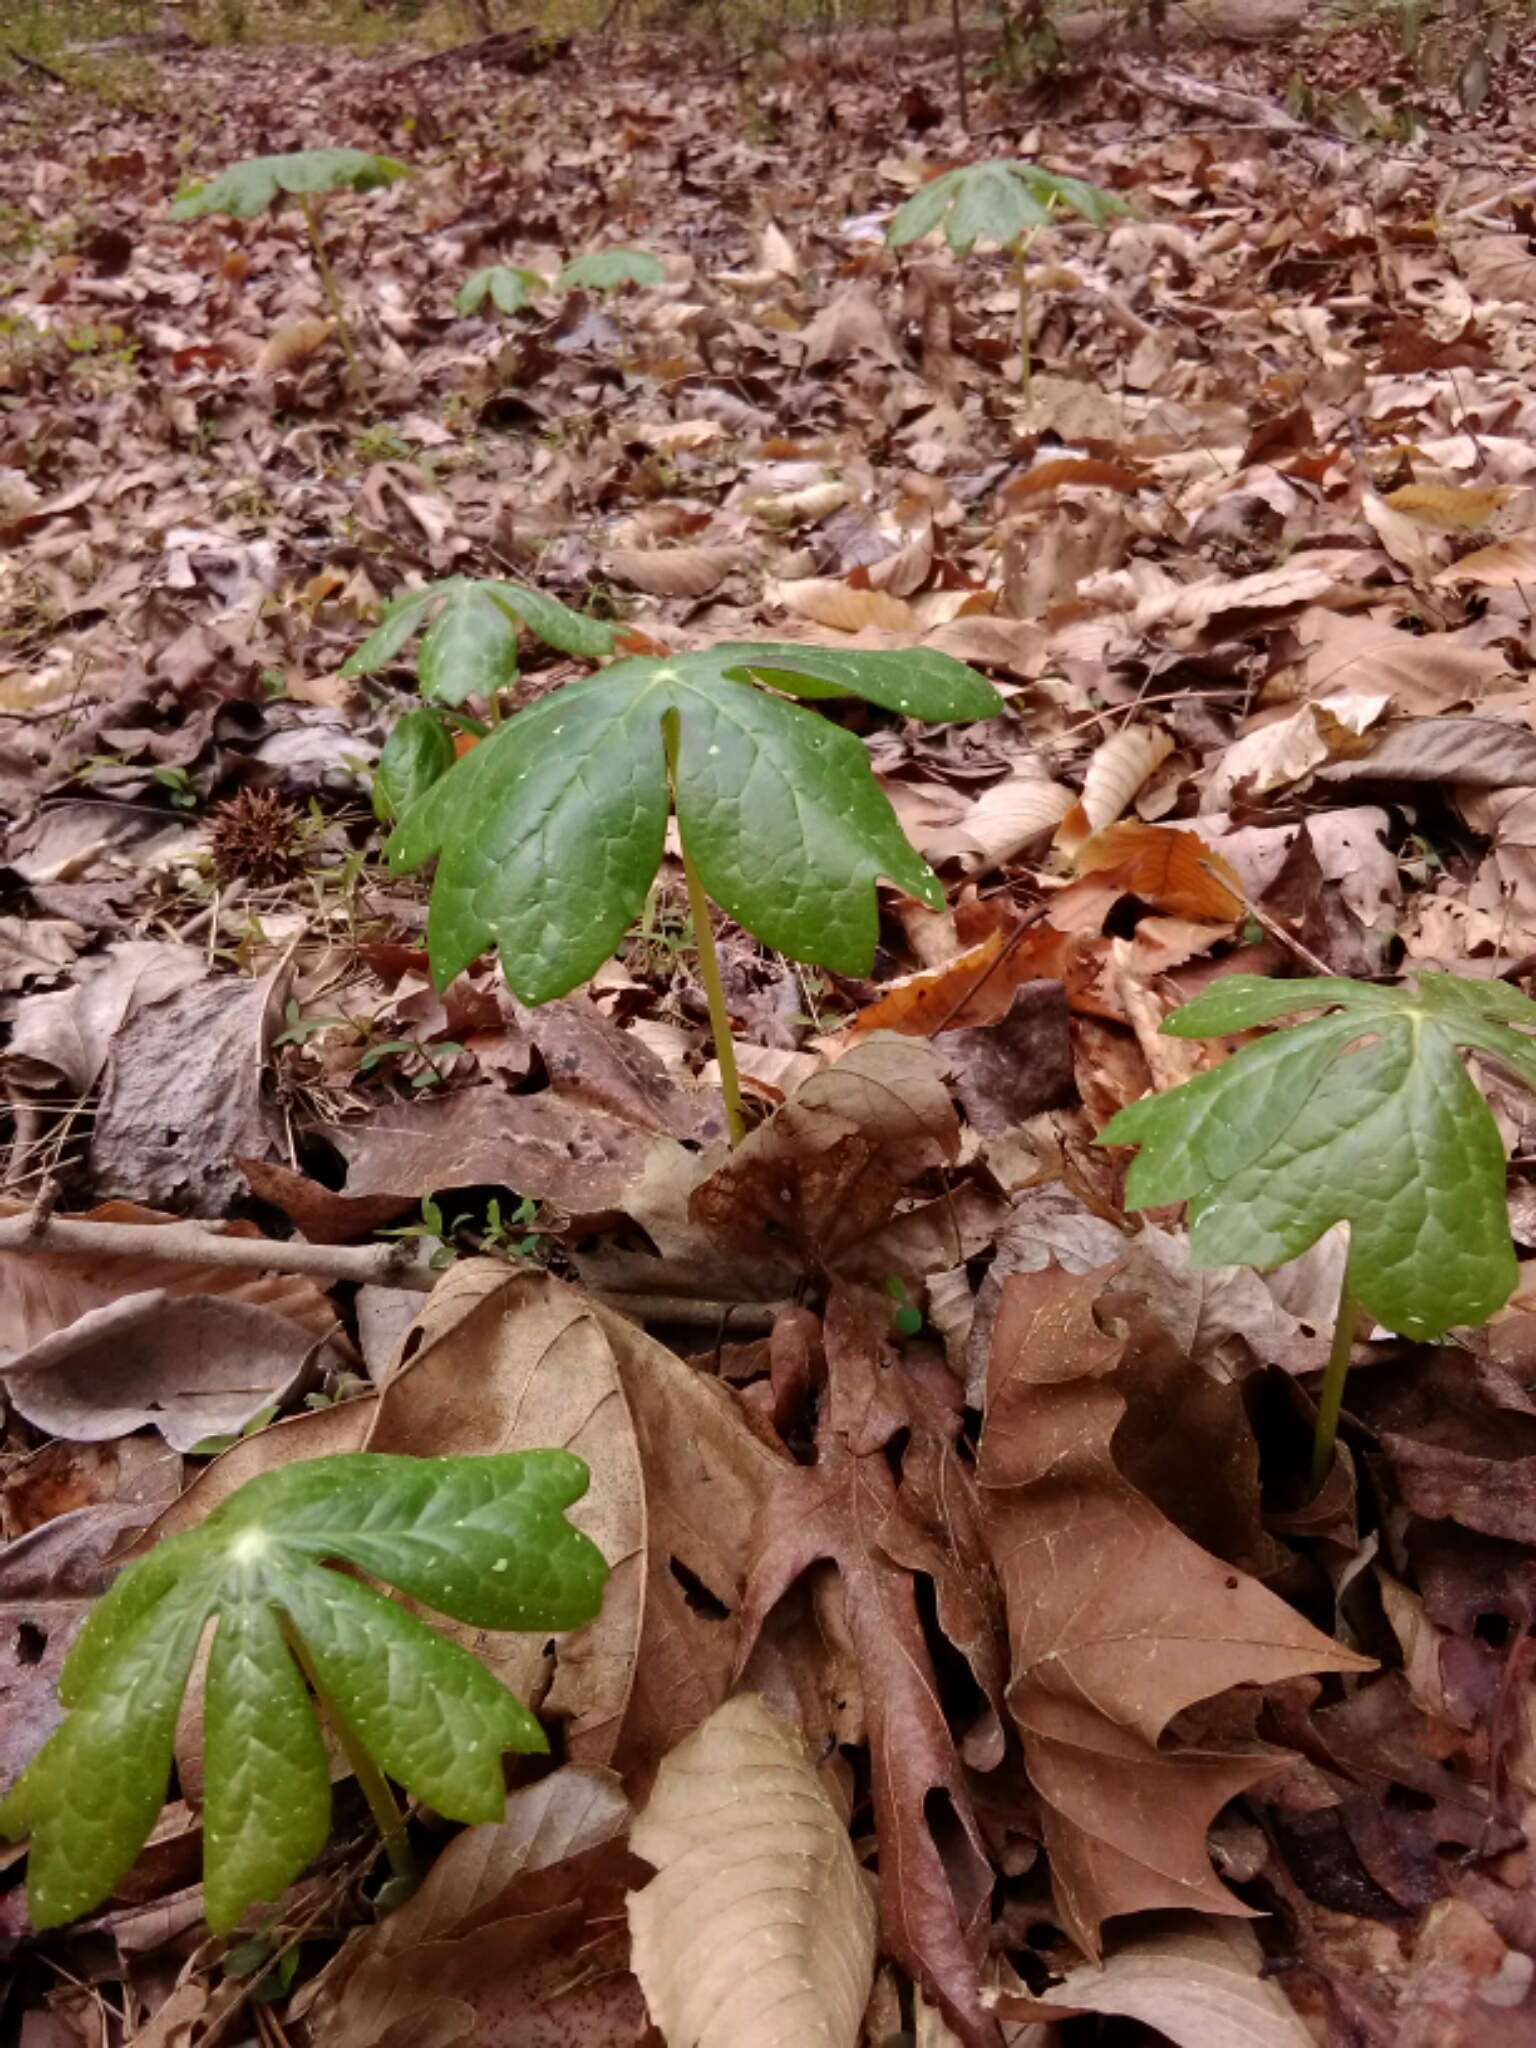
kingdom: Plantae
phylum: Tracheophyta
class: Magnoliopsida
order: Ranunculales
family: Berberidaceae
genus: Podophyllum
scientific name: Podophyllum peltatum
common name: Wild mandrake
